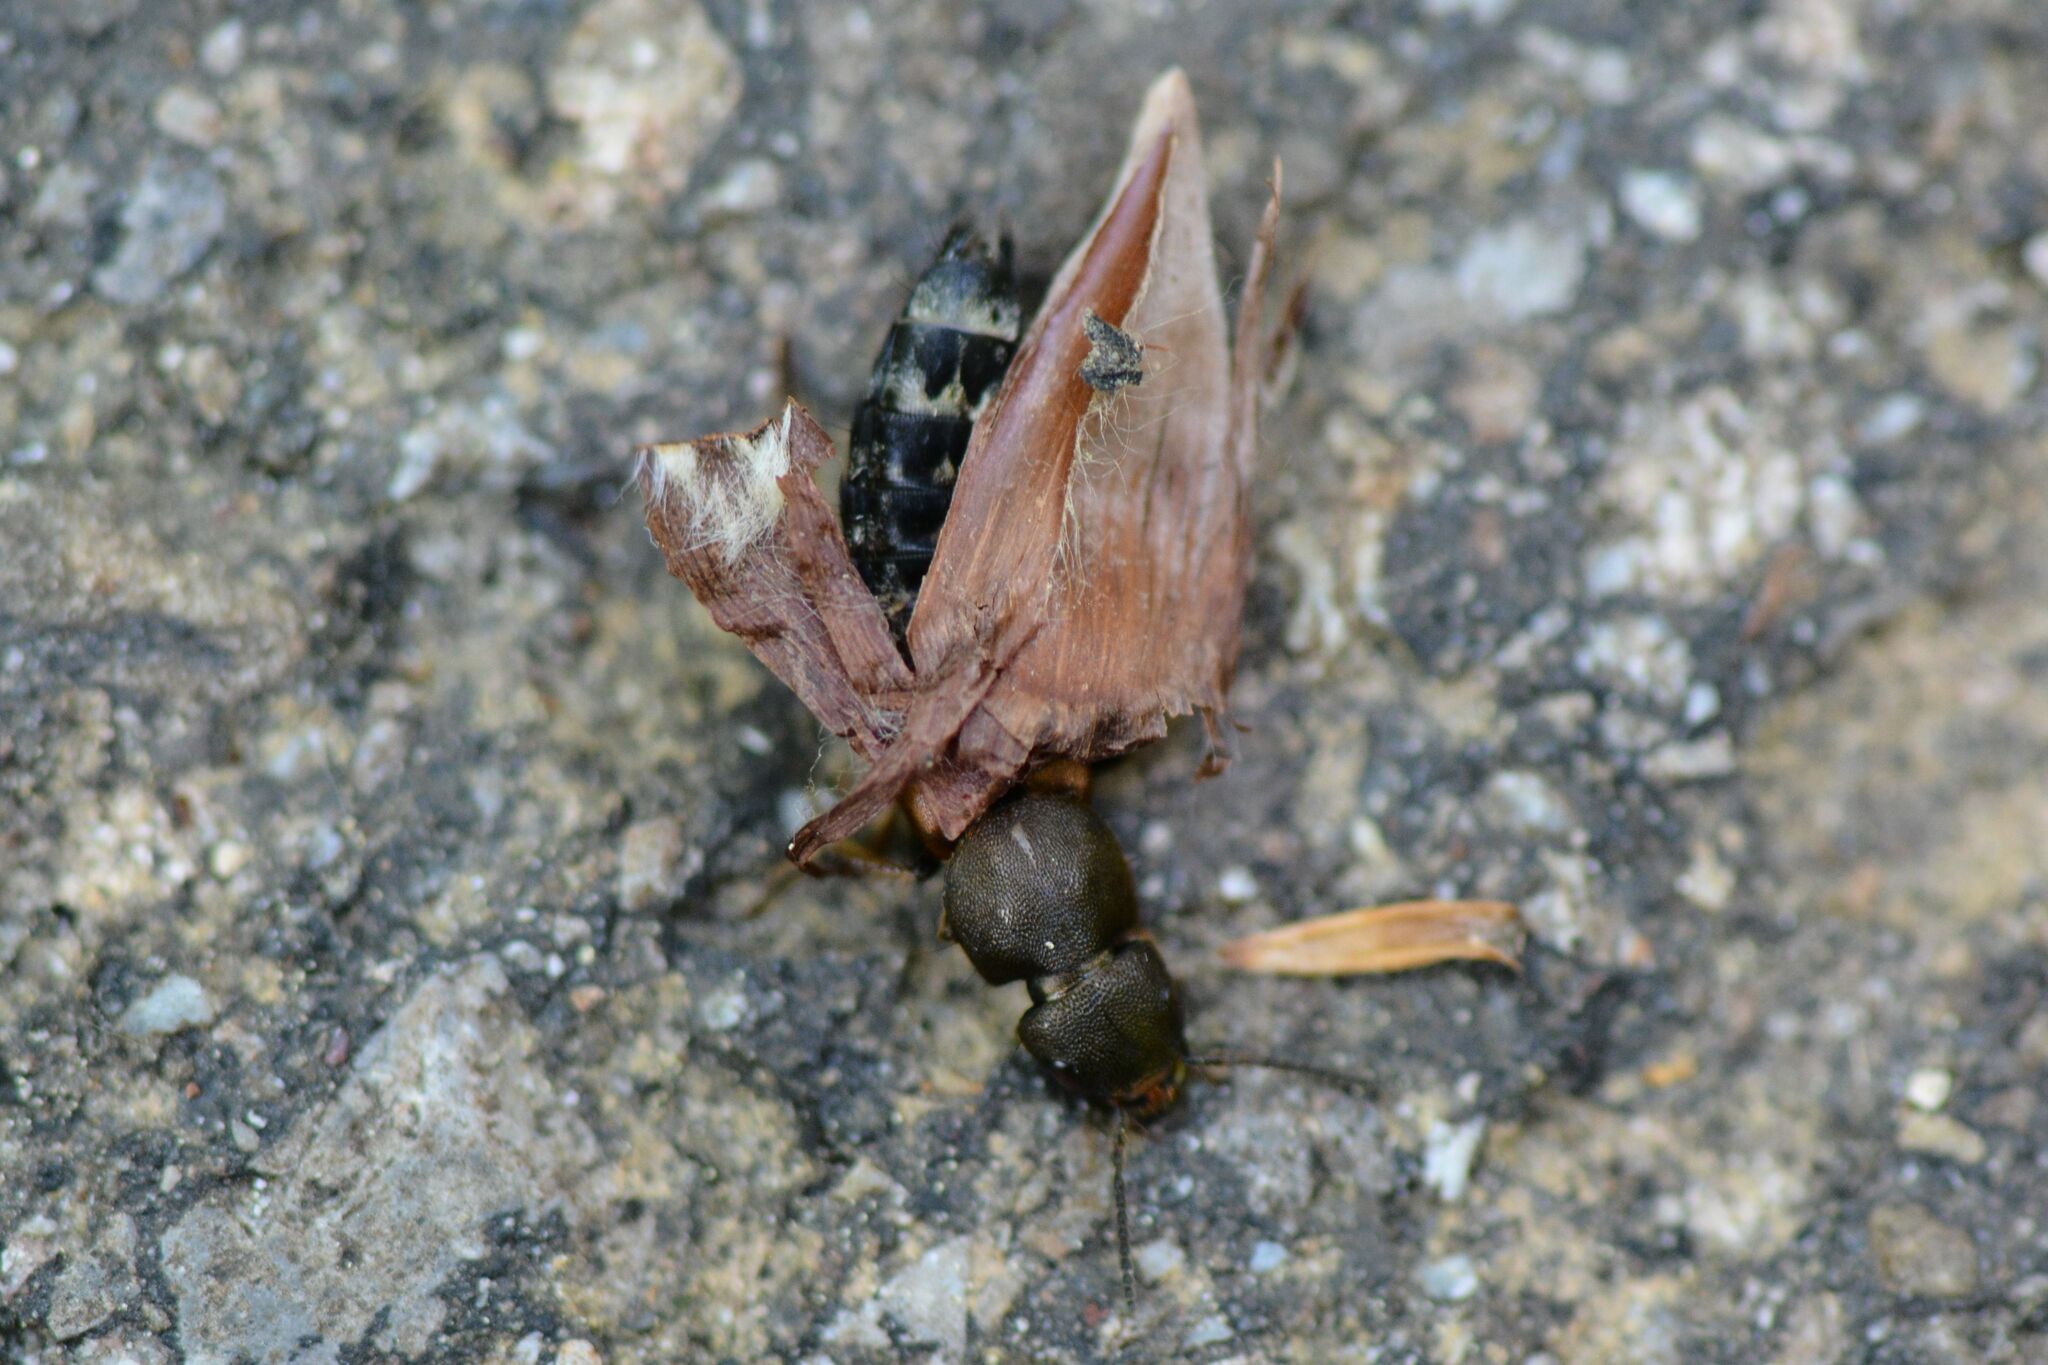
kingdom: Animalia
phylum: Arthropoda
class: Insecta
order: Coleoptera
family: Staphylinidae
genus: Platydracus
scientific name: Platydracus chalcocephalus
